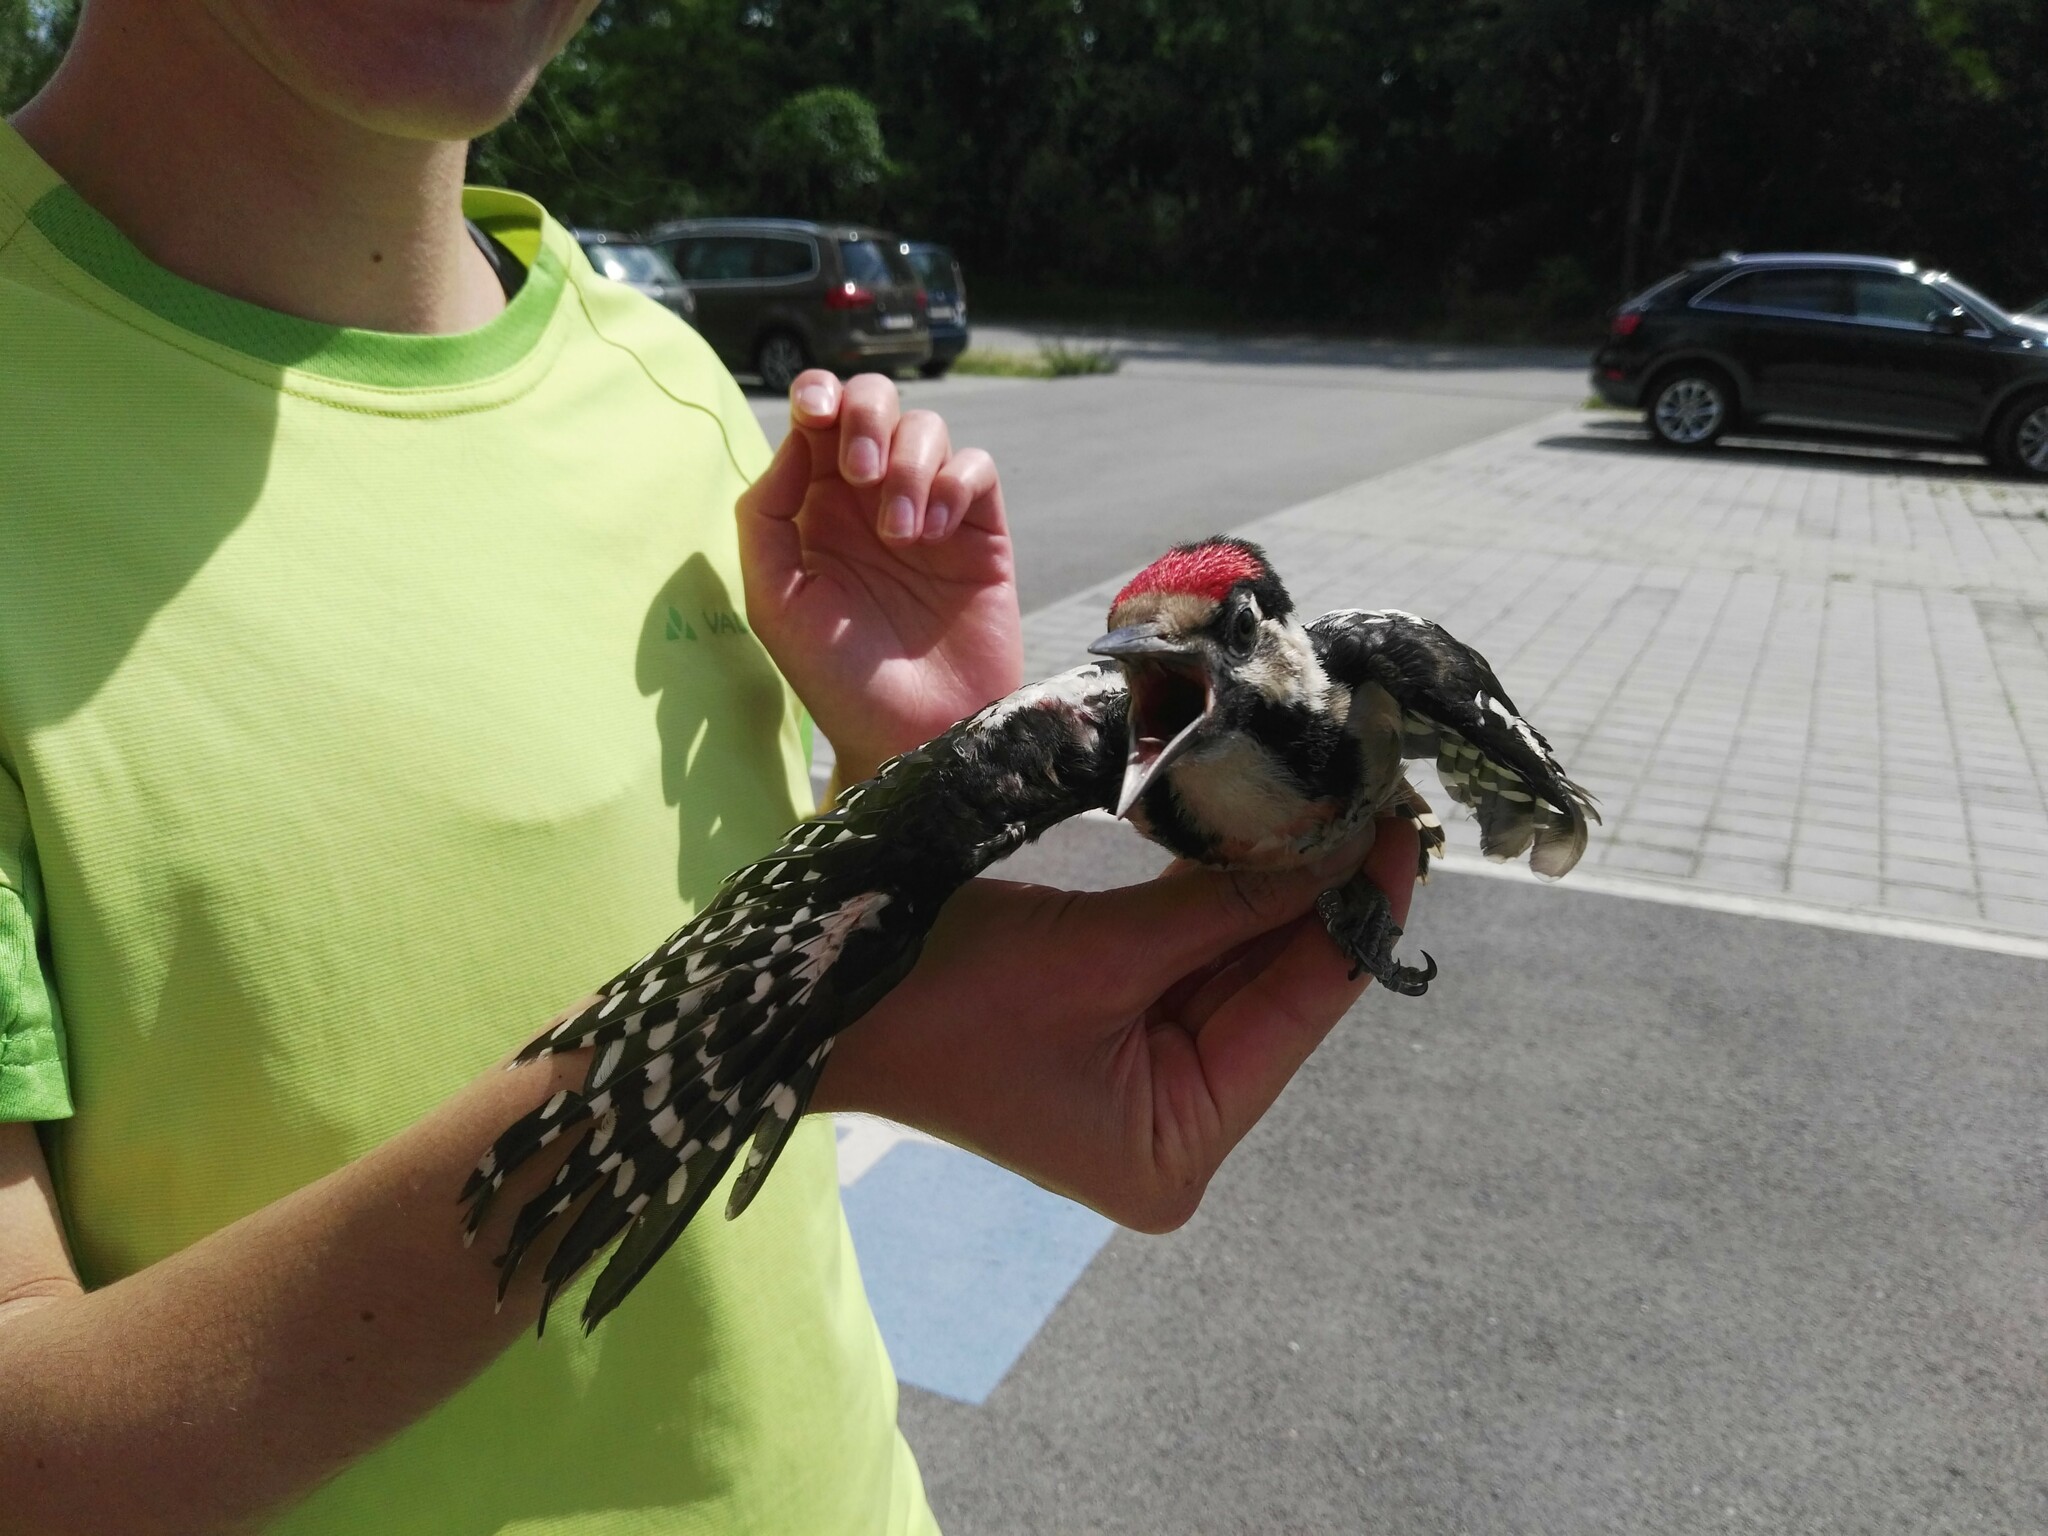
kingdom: Animalia
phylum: Chordata
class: Aves
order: Piciformes
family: Picidae
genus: Dendrocopos
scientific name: Dendrocopos major
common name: Great spotted woodpecker
